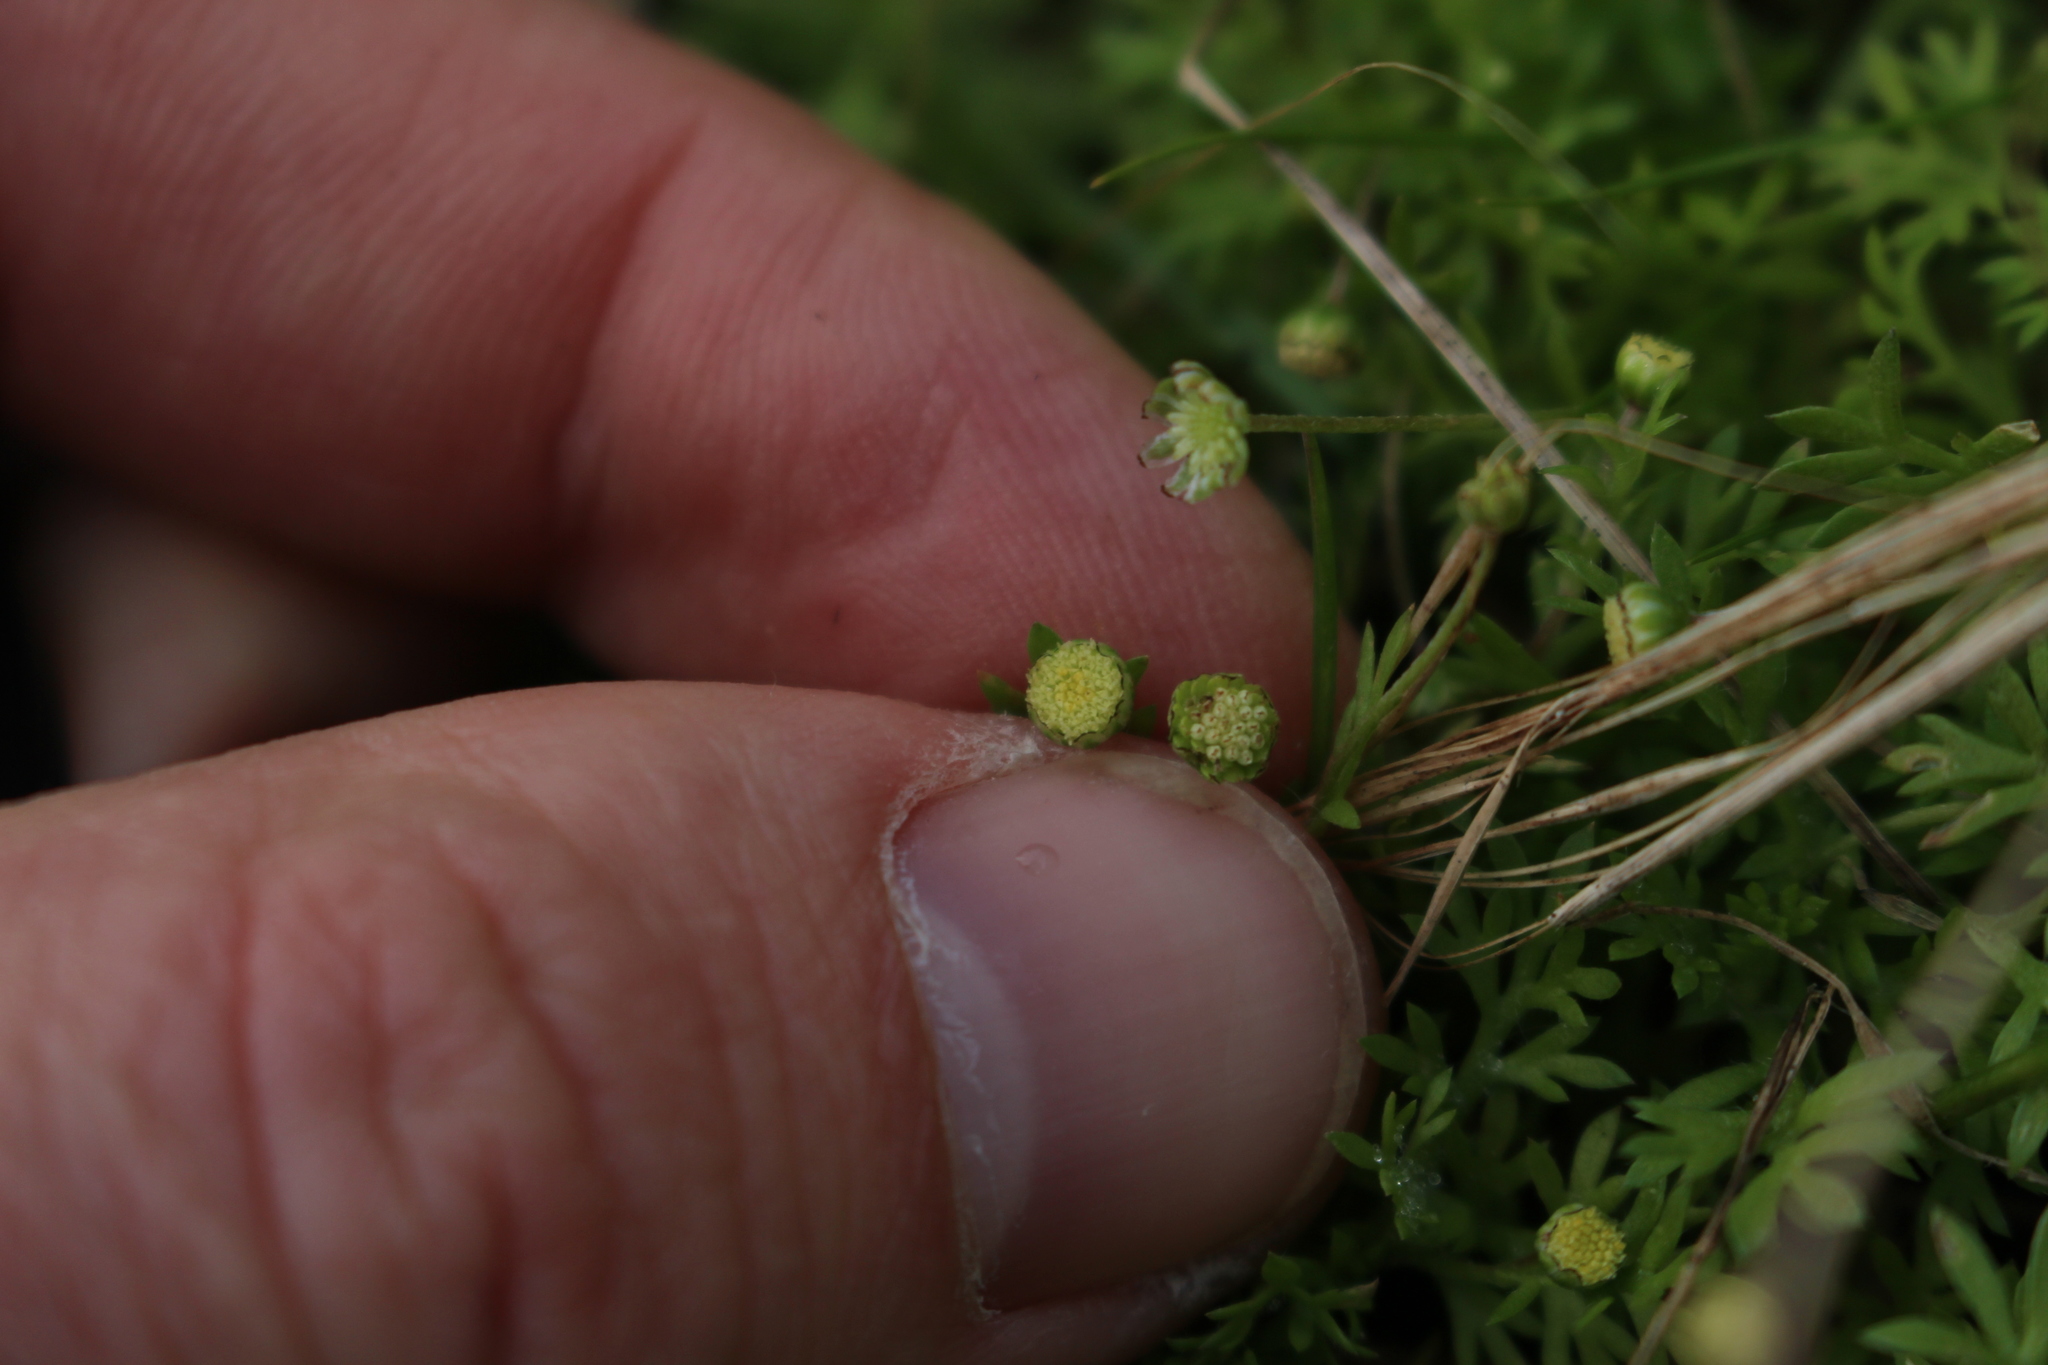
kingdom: Plantae
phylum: Tracheophyta
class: Magnoliopsida
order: Asterales
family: Asteraceae
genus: Cotula
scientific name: Cotula australis
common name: Australian waterbuttons
